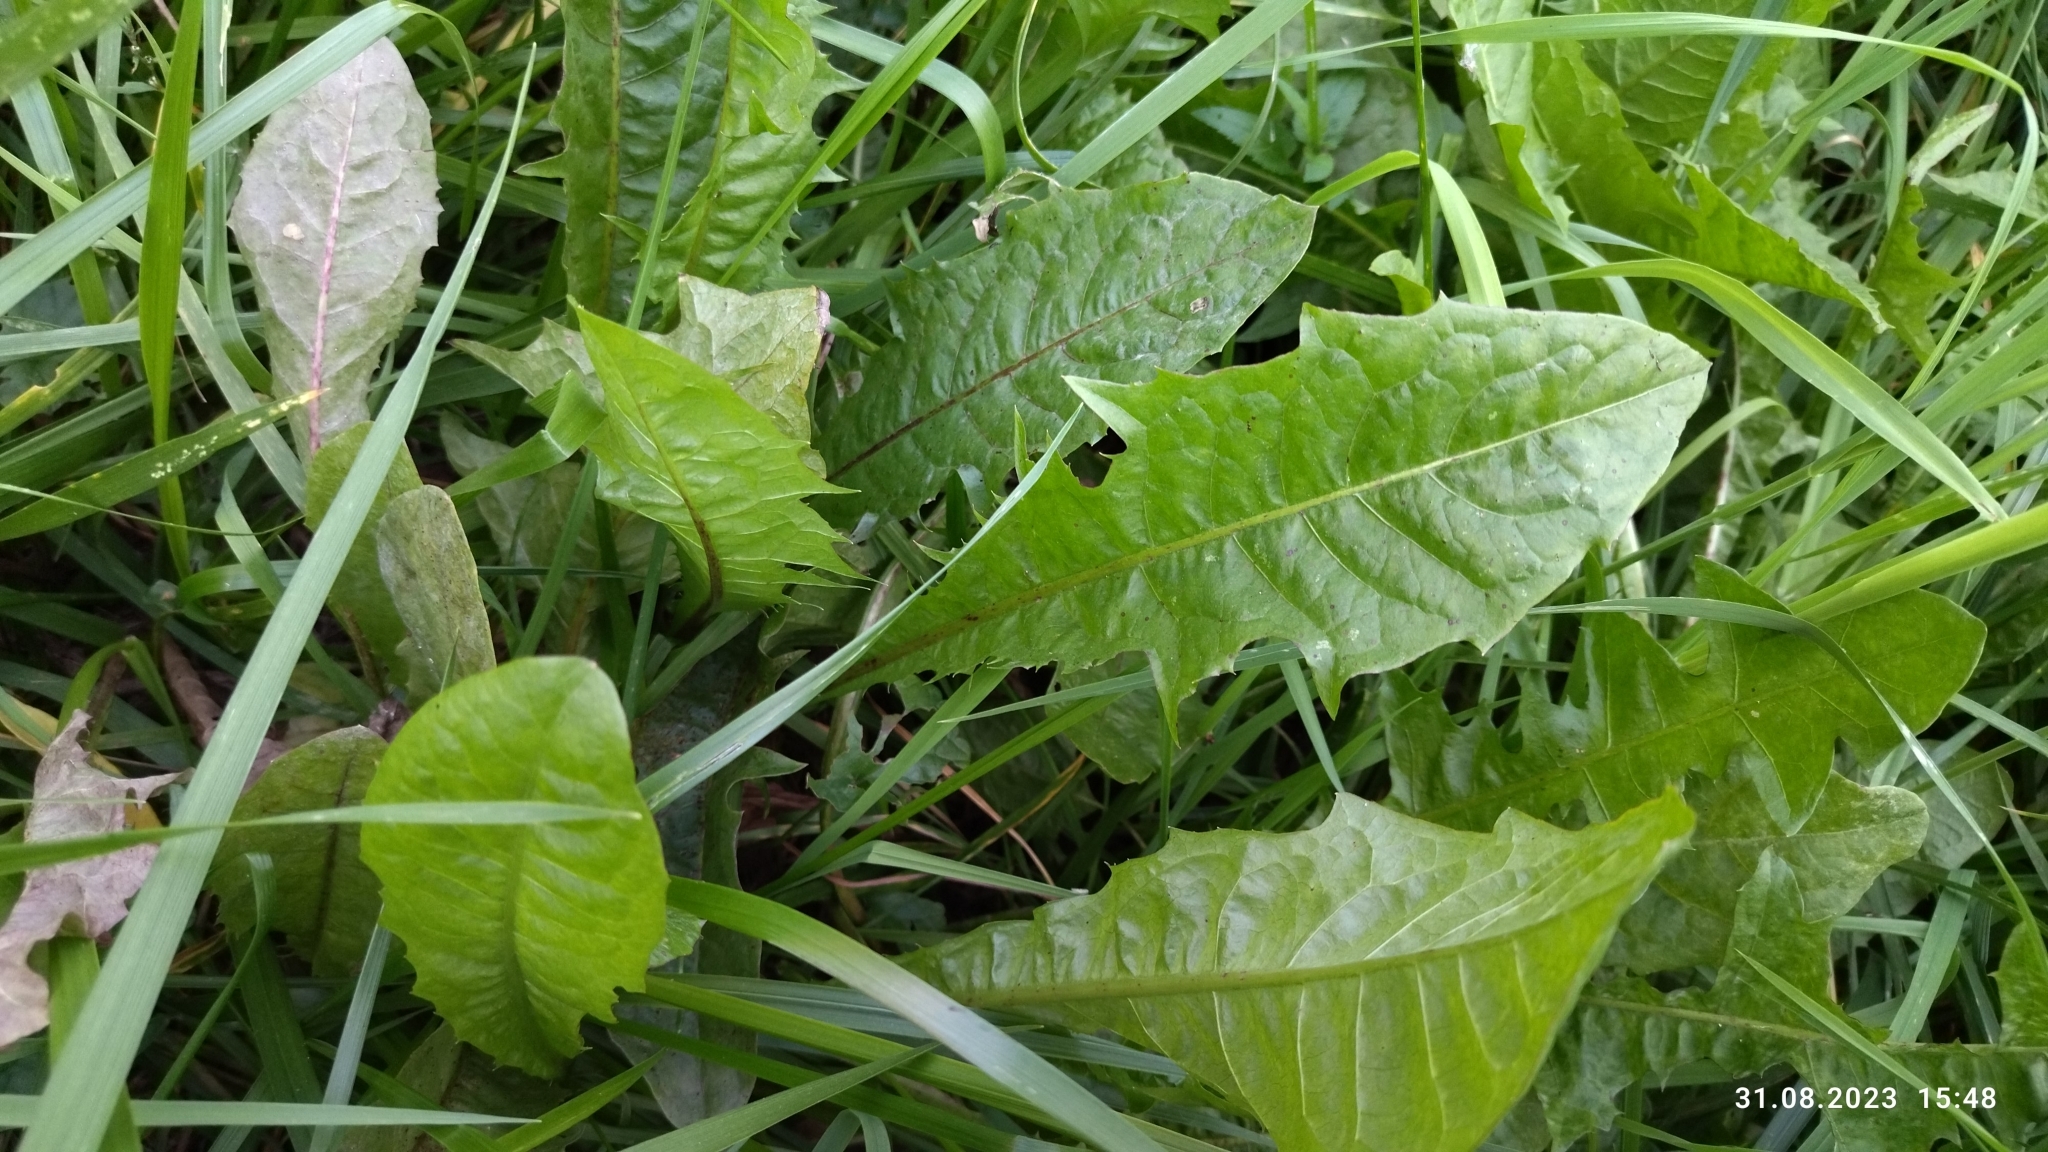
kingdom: Plantae
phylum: Tracheophyta
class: Magnoliopsida
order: Asterales
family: Asteraceae
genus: Taraxacum
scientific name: Taraxacum officinale
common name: Common dandelion
